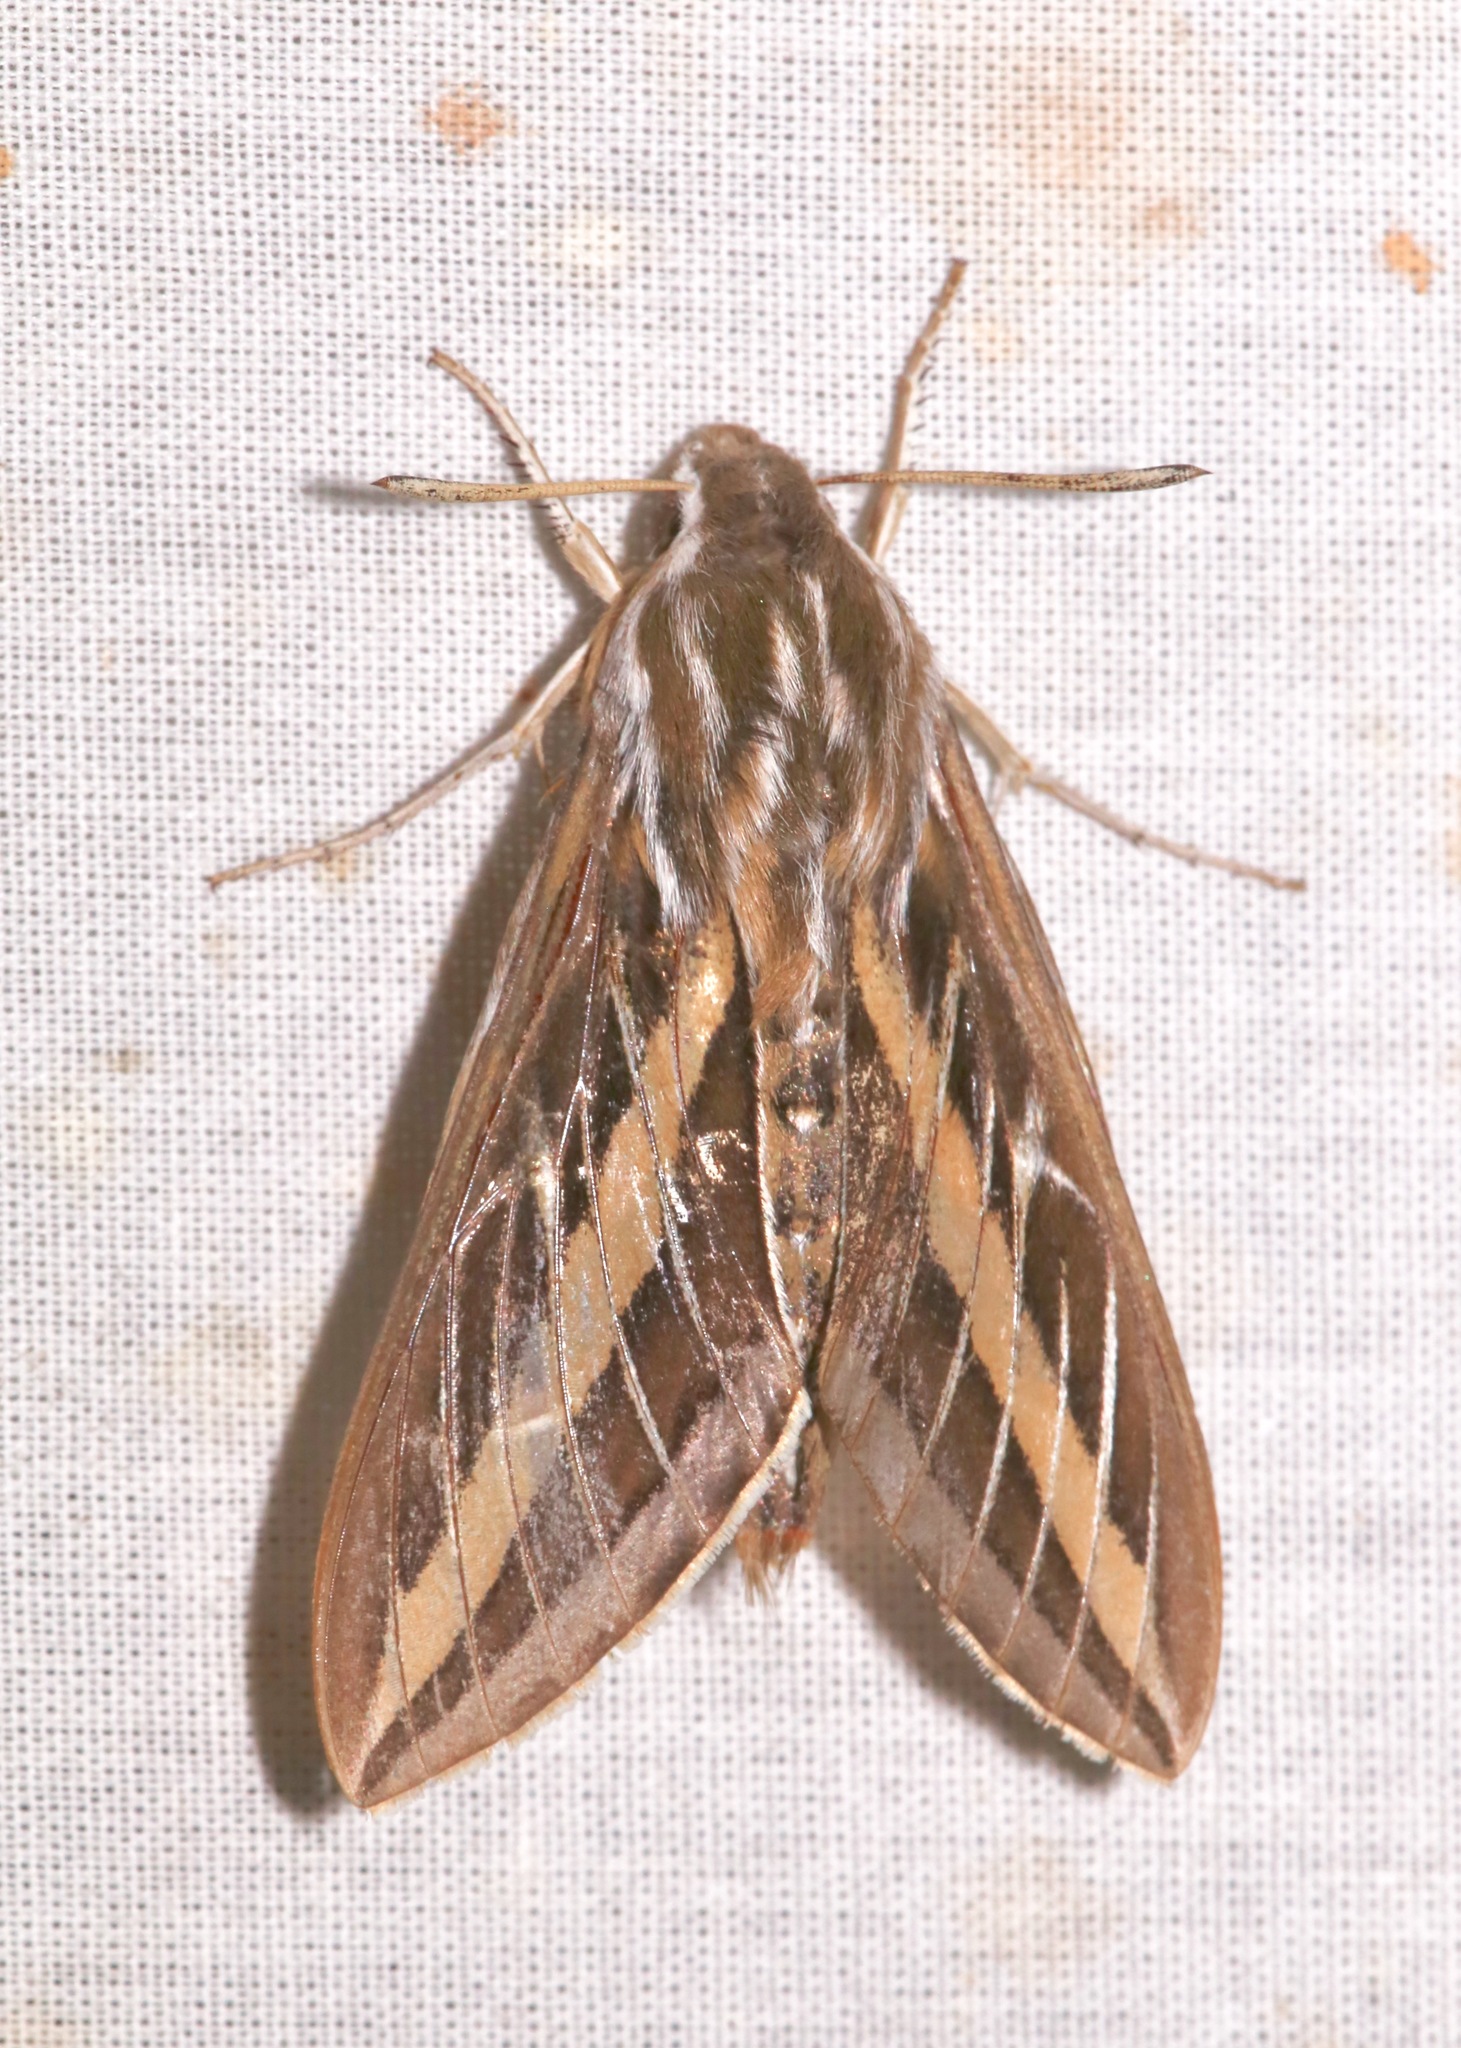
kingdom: Animalia
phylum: Arthropoda
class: Insecta
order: Lepidoptera
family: Sphingidae
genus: Hyles
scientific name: Hyles lineata
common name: White-lined sphinx
